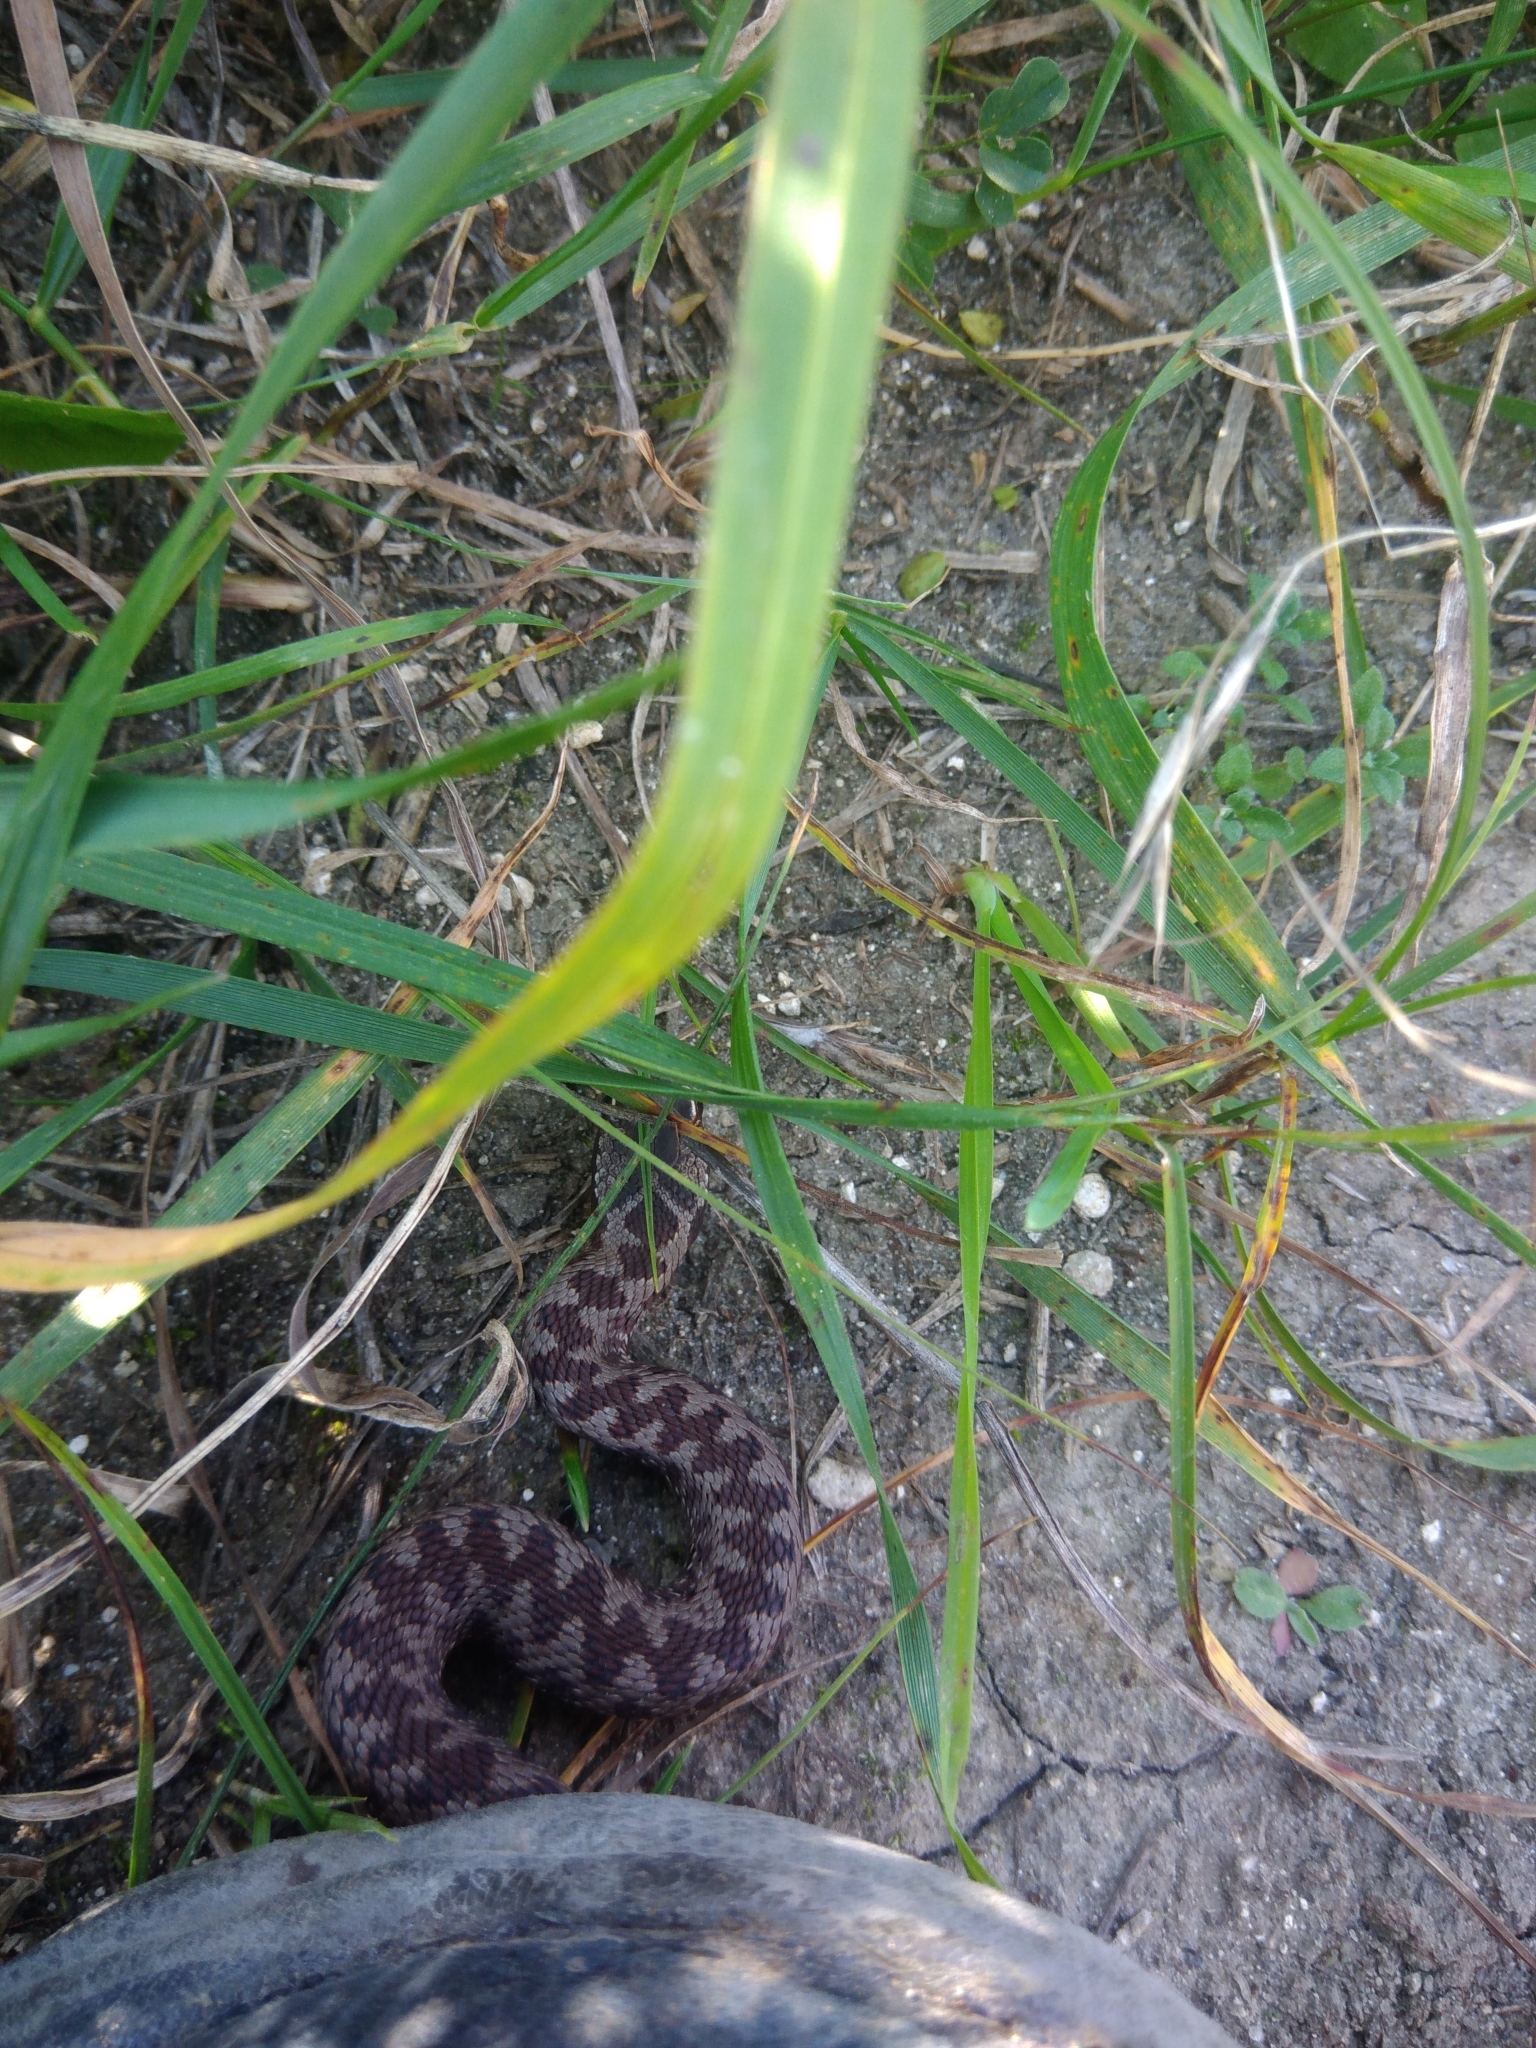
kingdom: Animalia
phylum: Chordata
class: Squamata
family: Viperidae
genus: Vipera
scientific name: Vipera berus
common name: Adder
